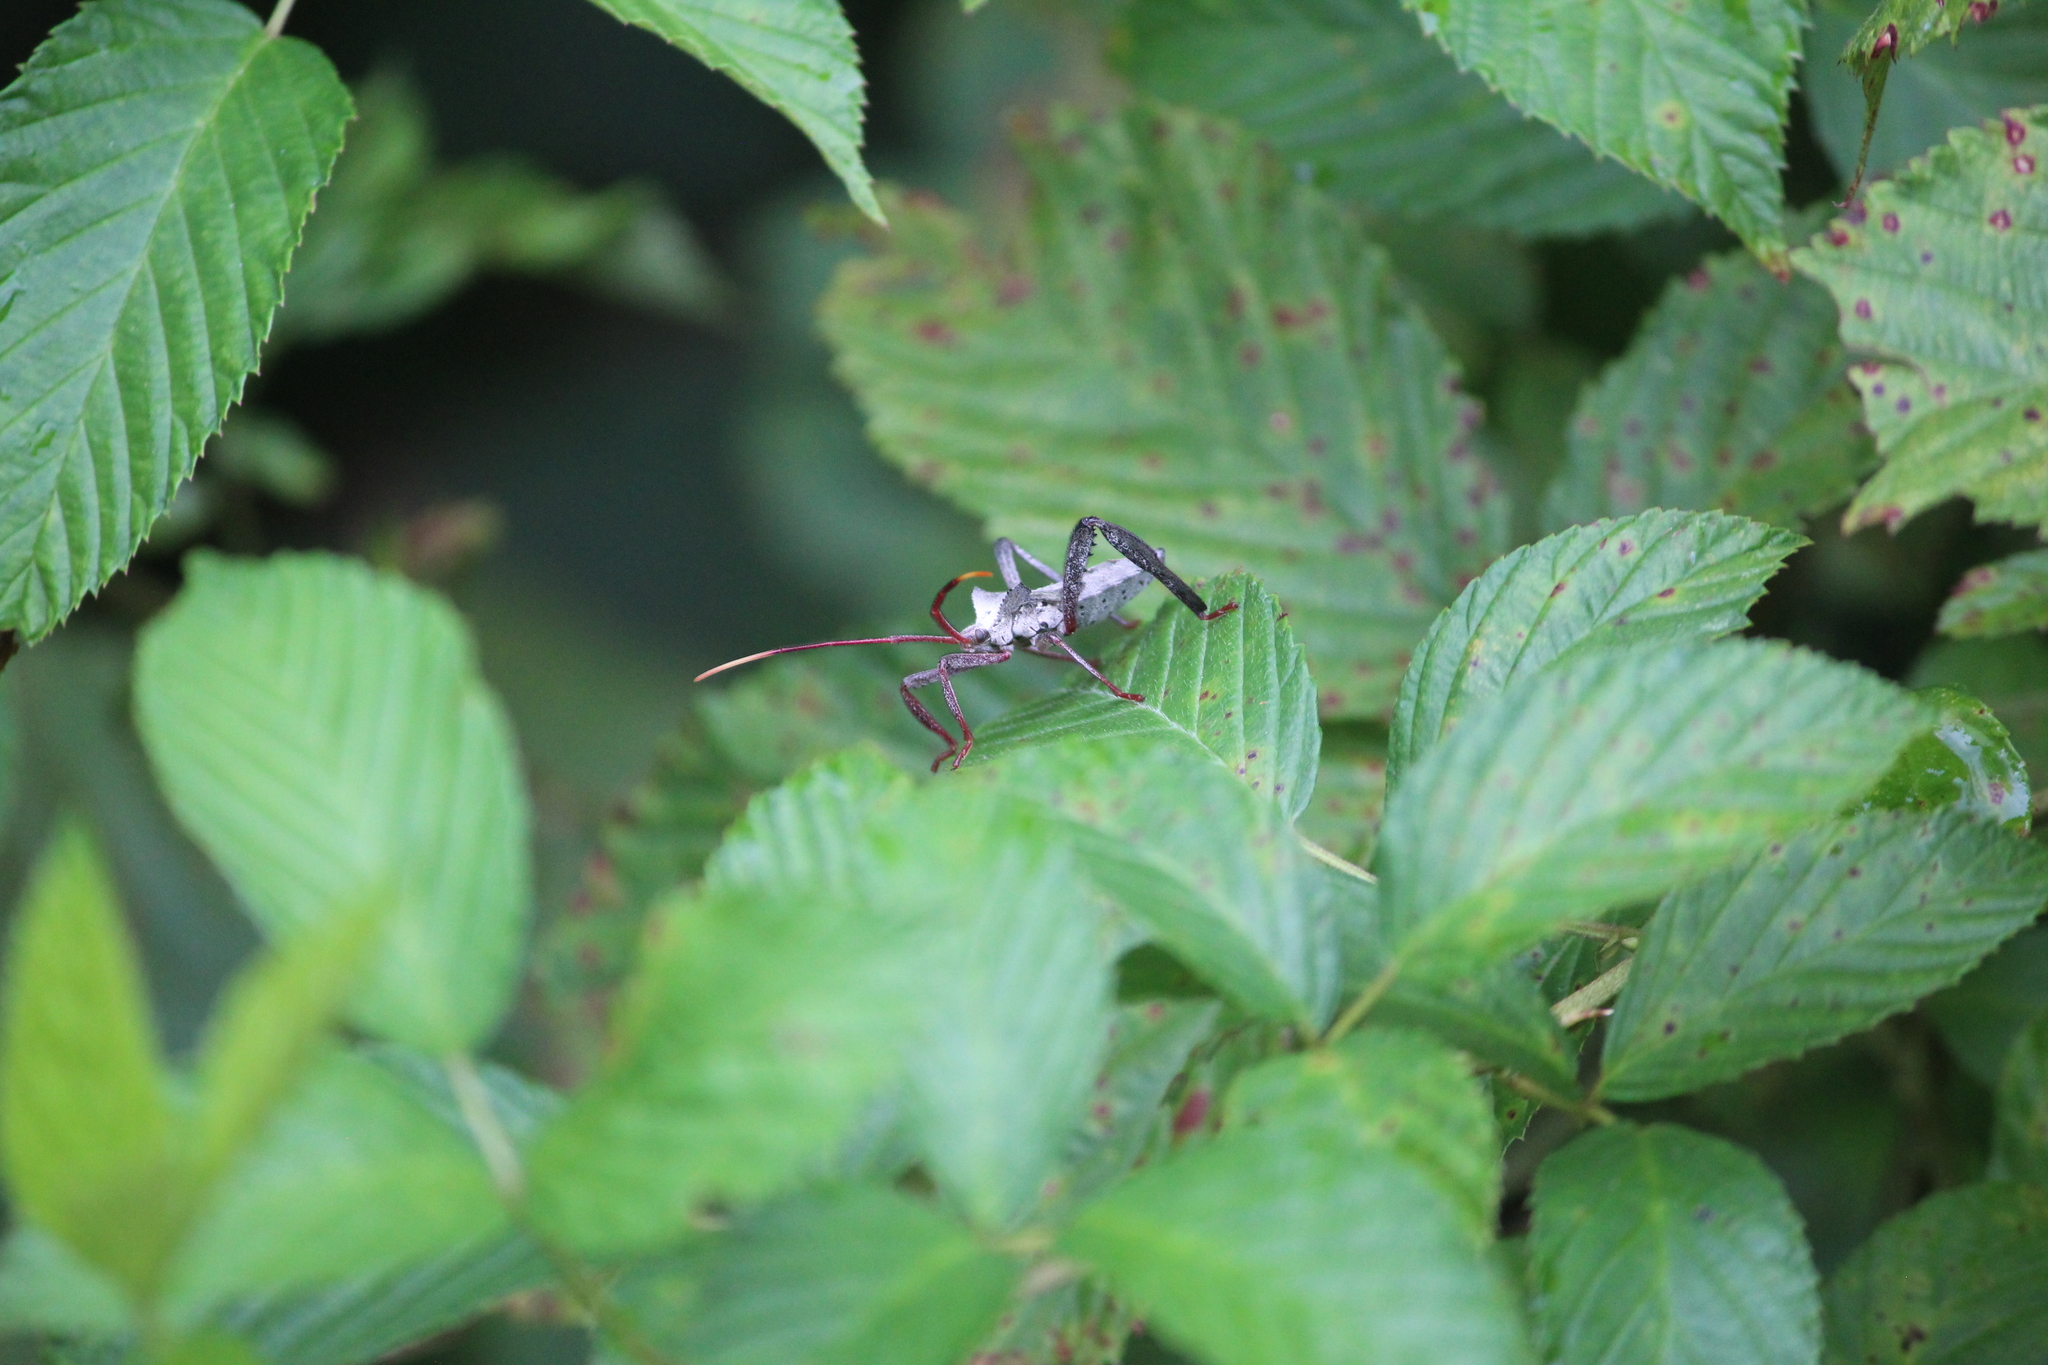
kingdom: Animalia
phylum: Arthropoda
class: Insecta
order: Hemiptera
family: Coreidae
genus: Acanthocephala
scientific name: Acanthocephala declivis
